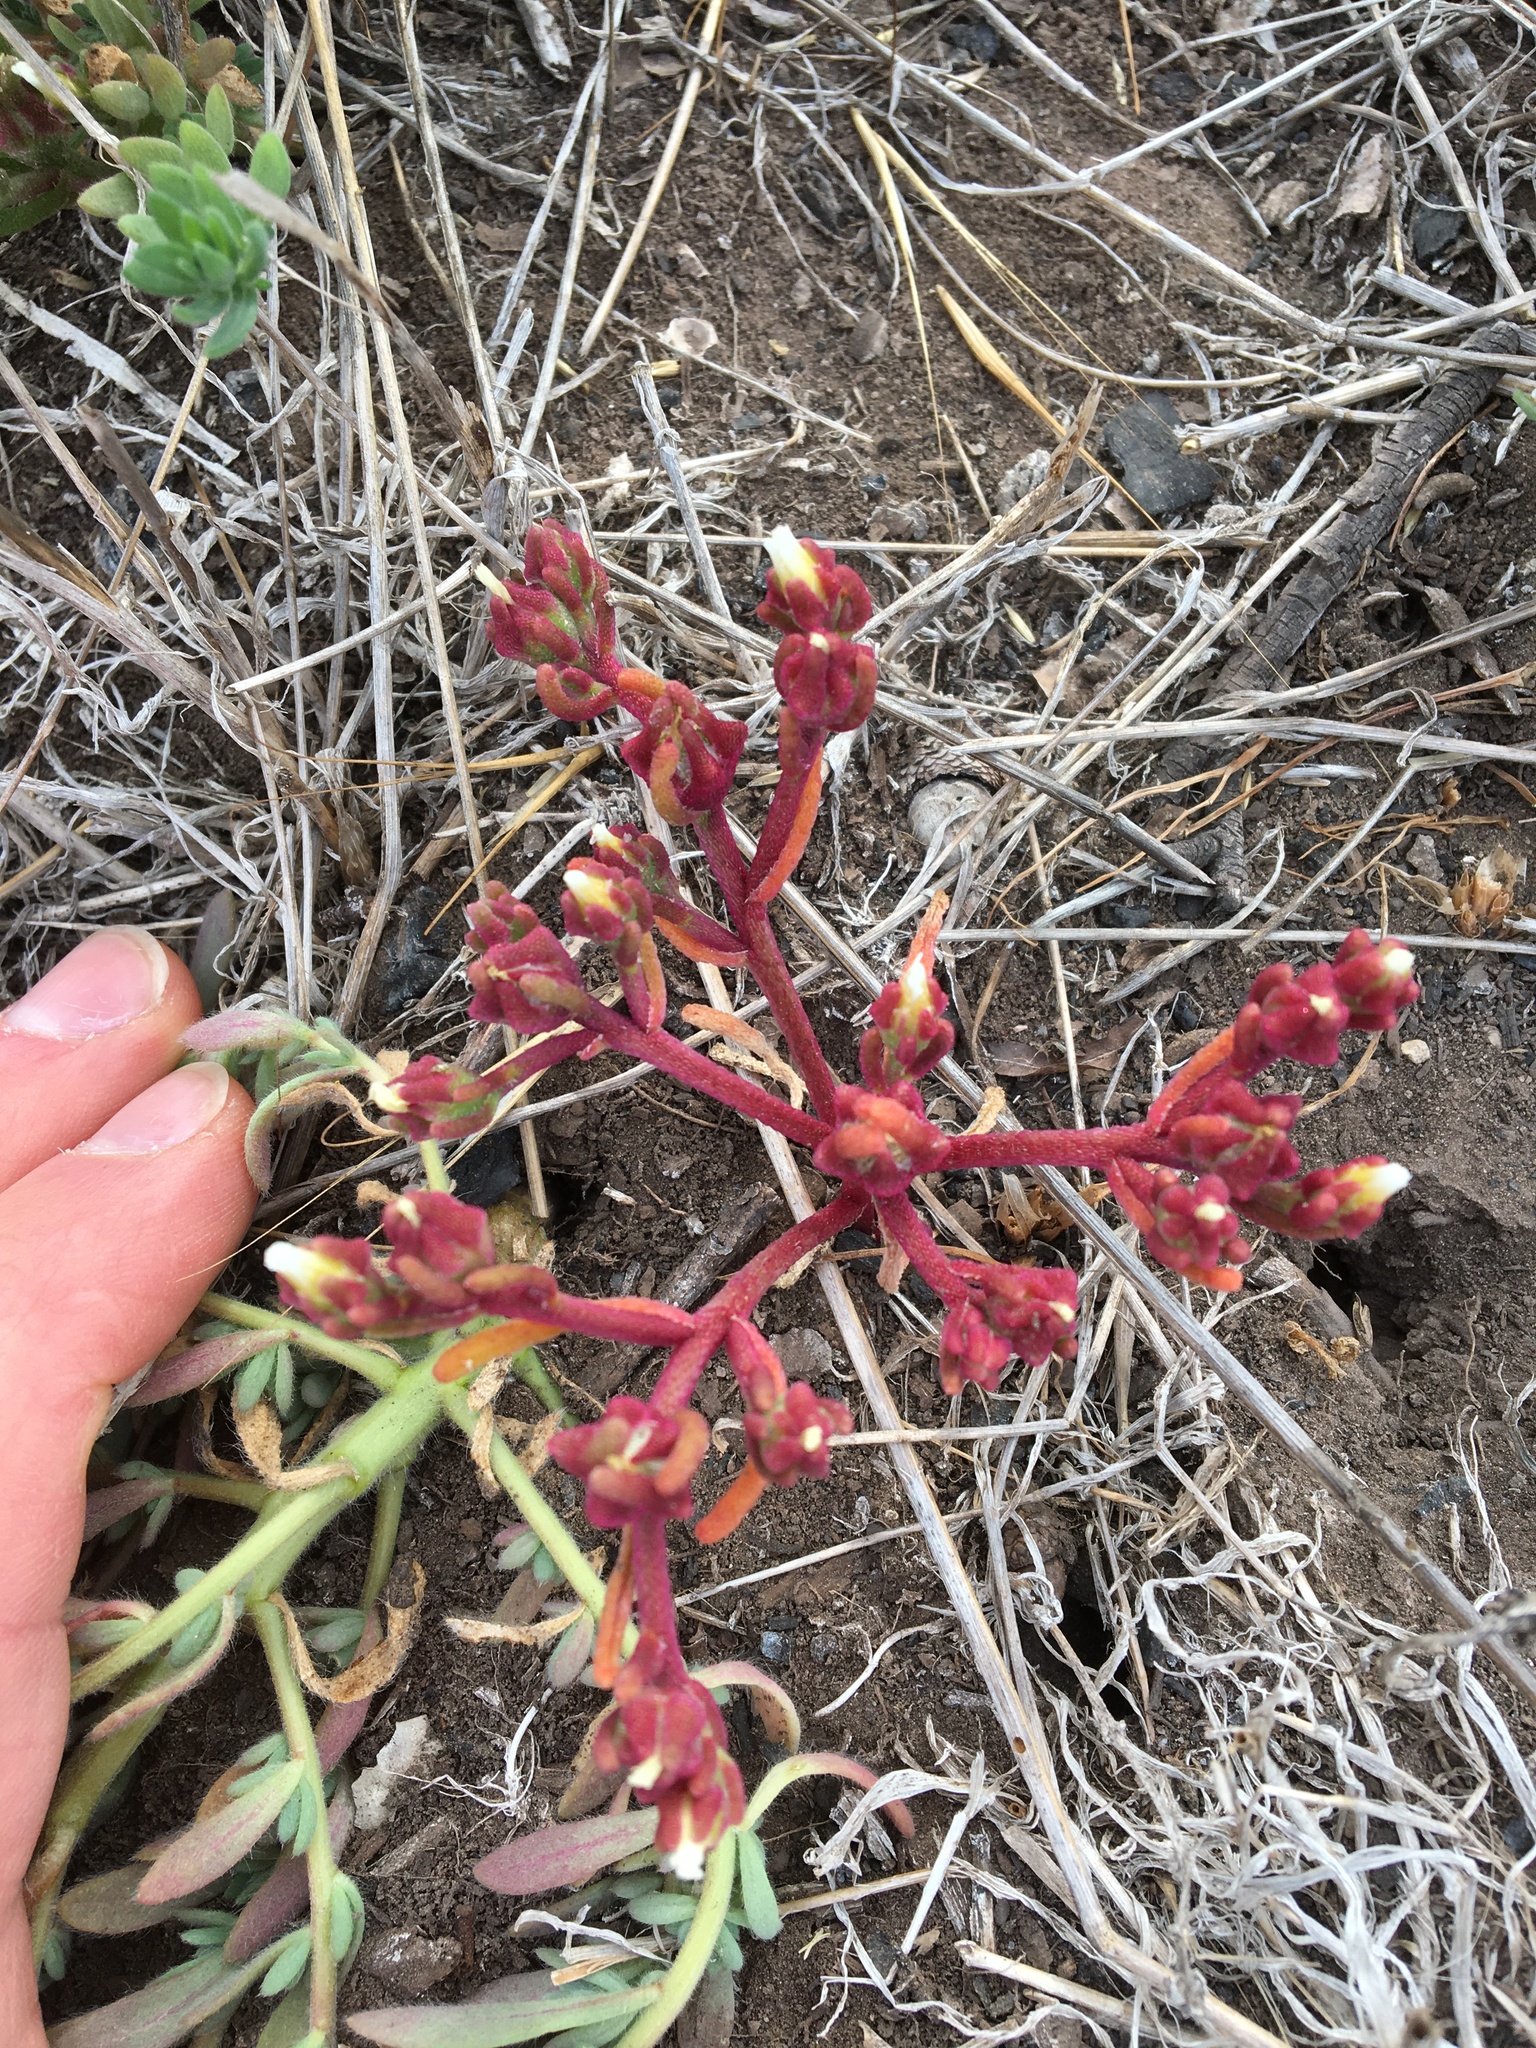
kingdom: Plantae
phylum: Tracheophyta
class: Magnoliopsida
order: Caryophyllales
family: Aizoaceae
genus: Mesembryanthemum
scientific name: Mesembryanthemum nodiflorum
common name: Slenderleaf iceplant
